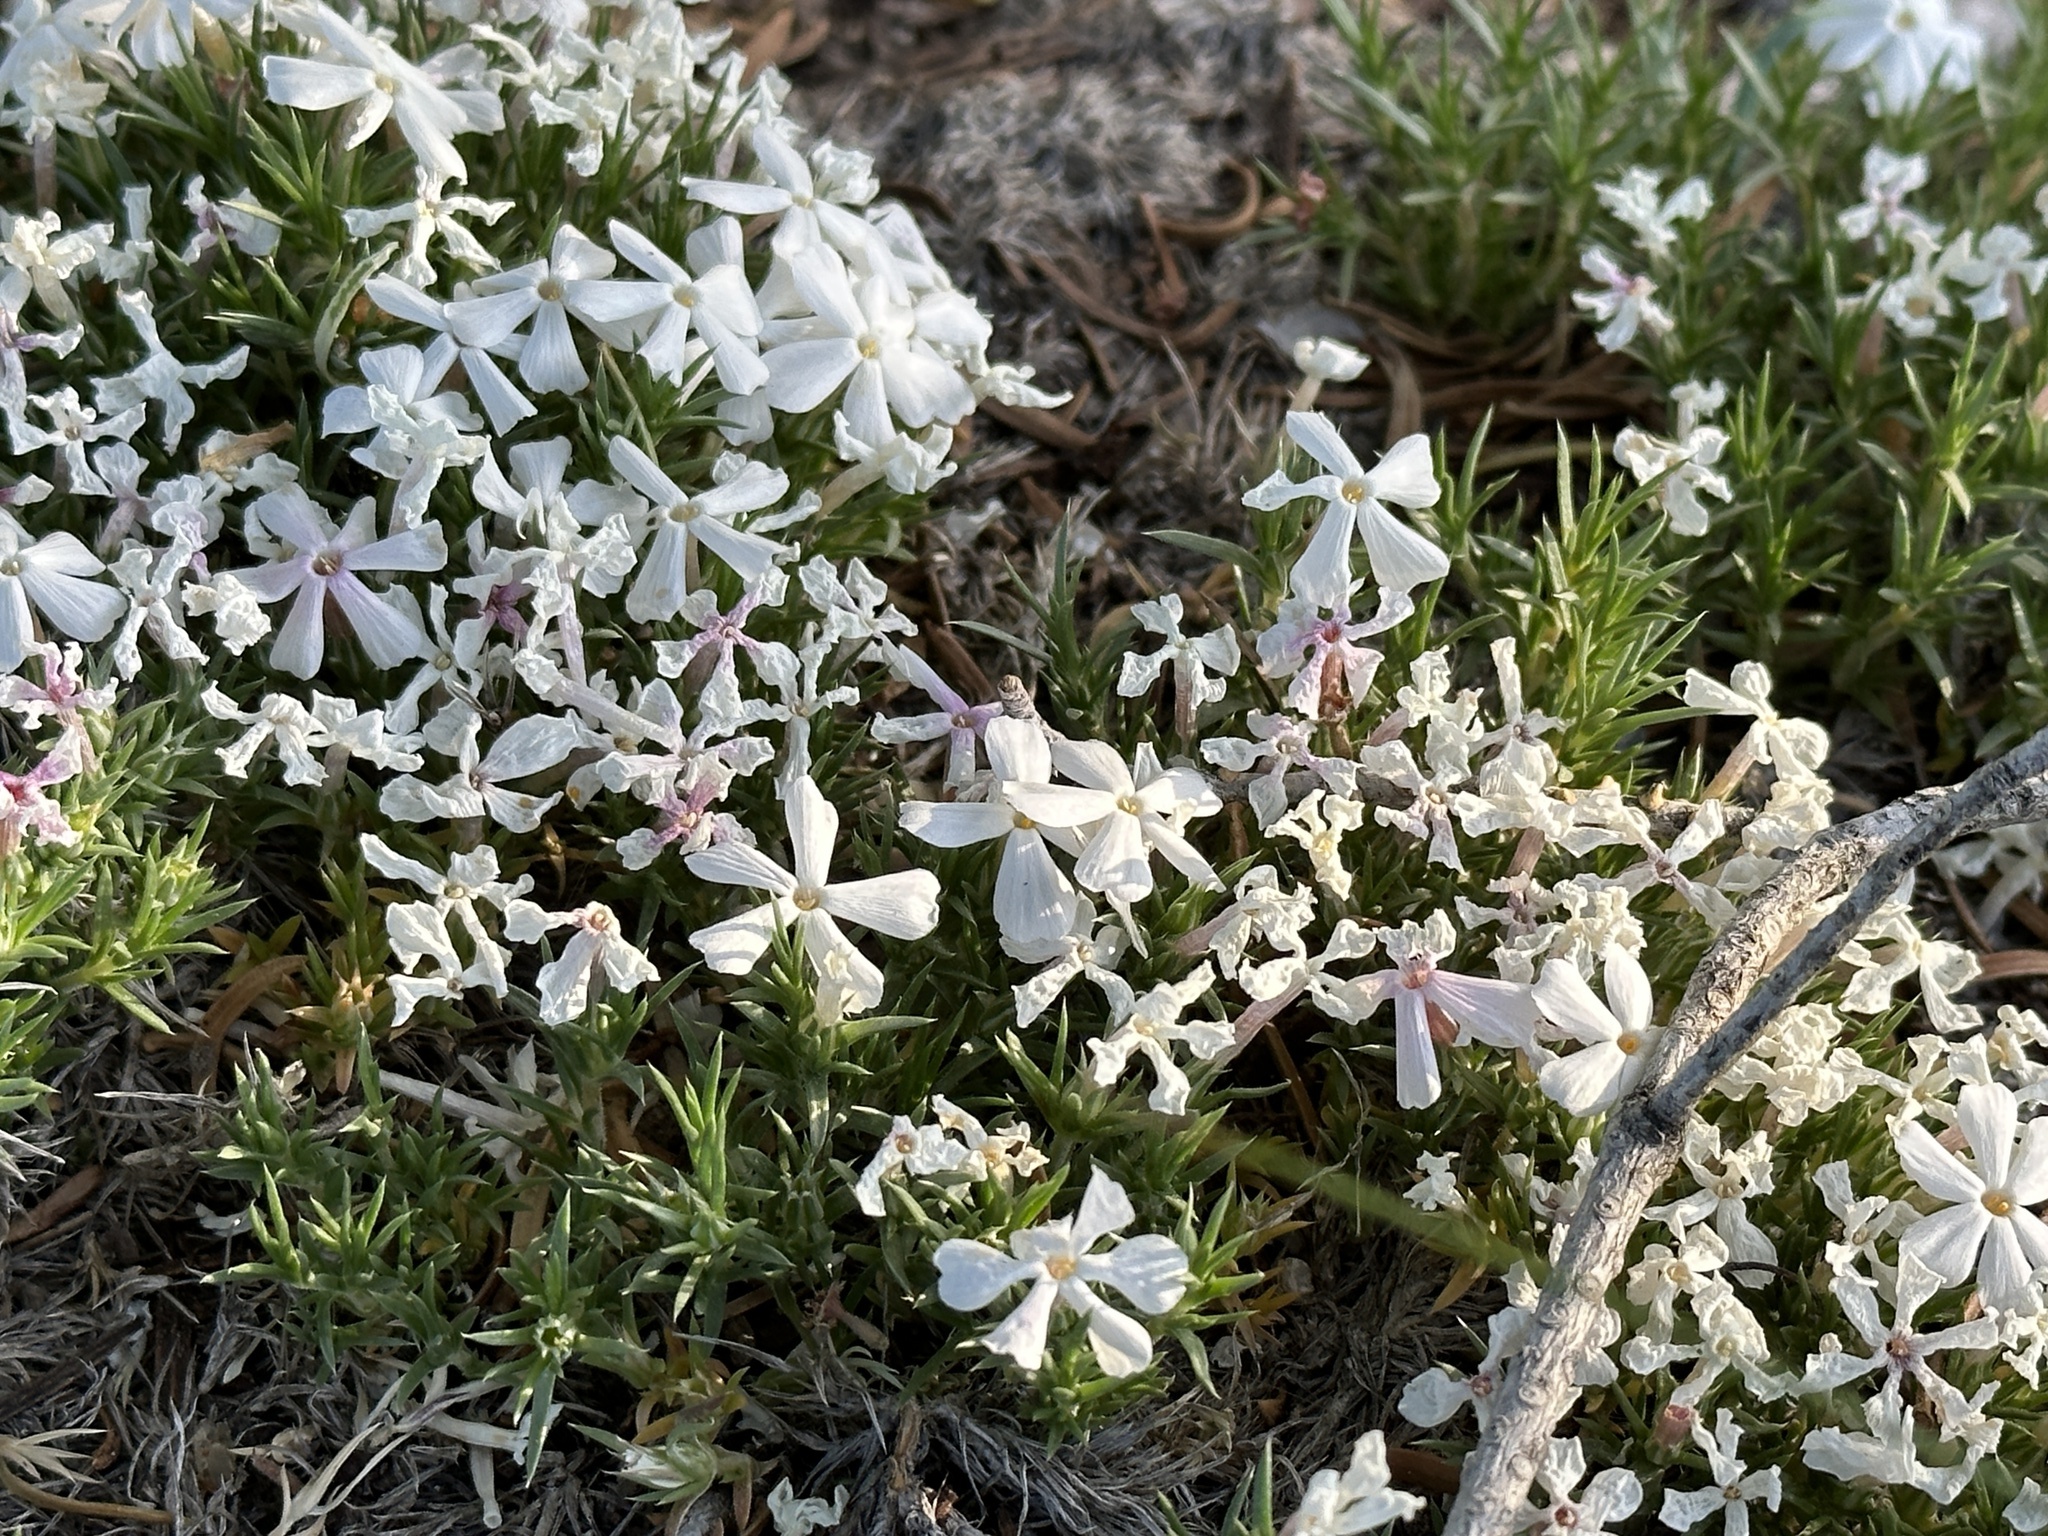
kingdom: Plantae
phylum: Tracheophyta
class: Magnoliopsida
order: Ericales
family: Polemoniaceae
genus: Phlox
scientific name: Phlox austromontana
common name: Desert phlox
